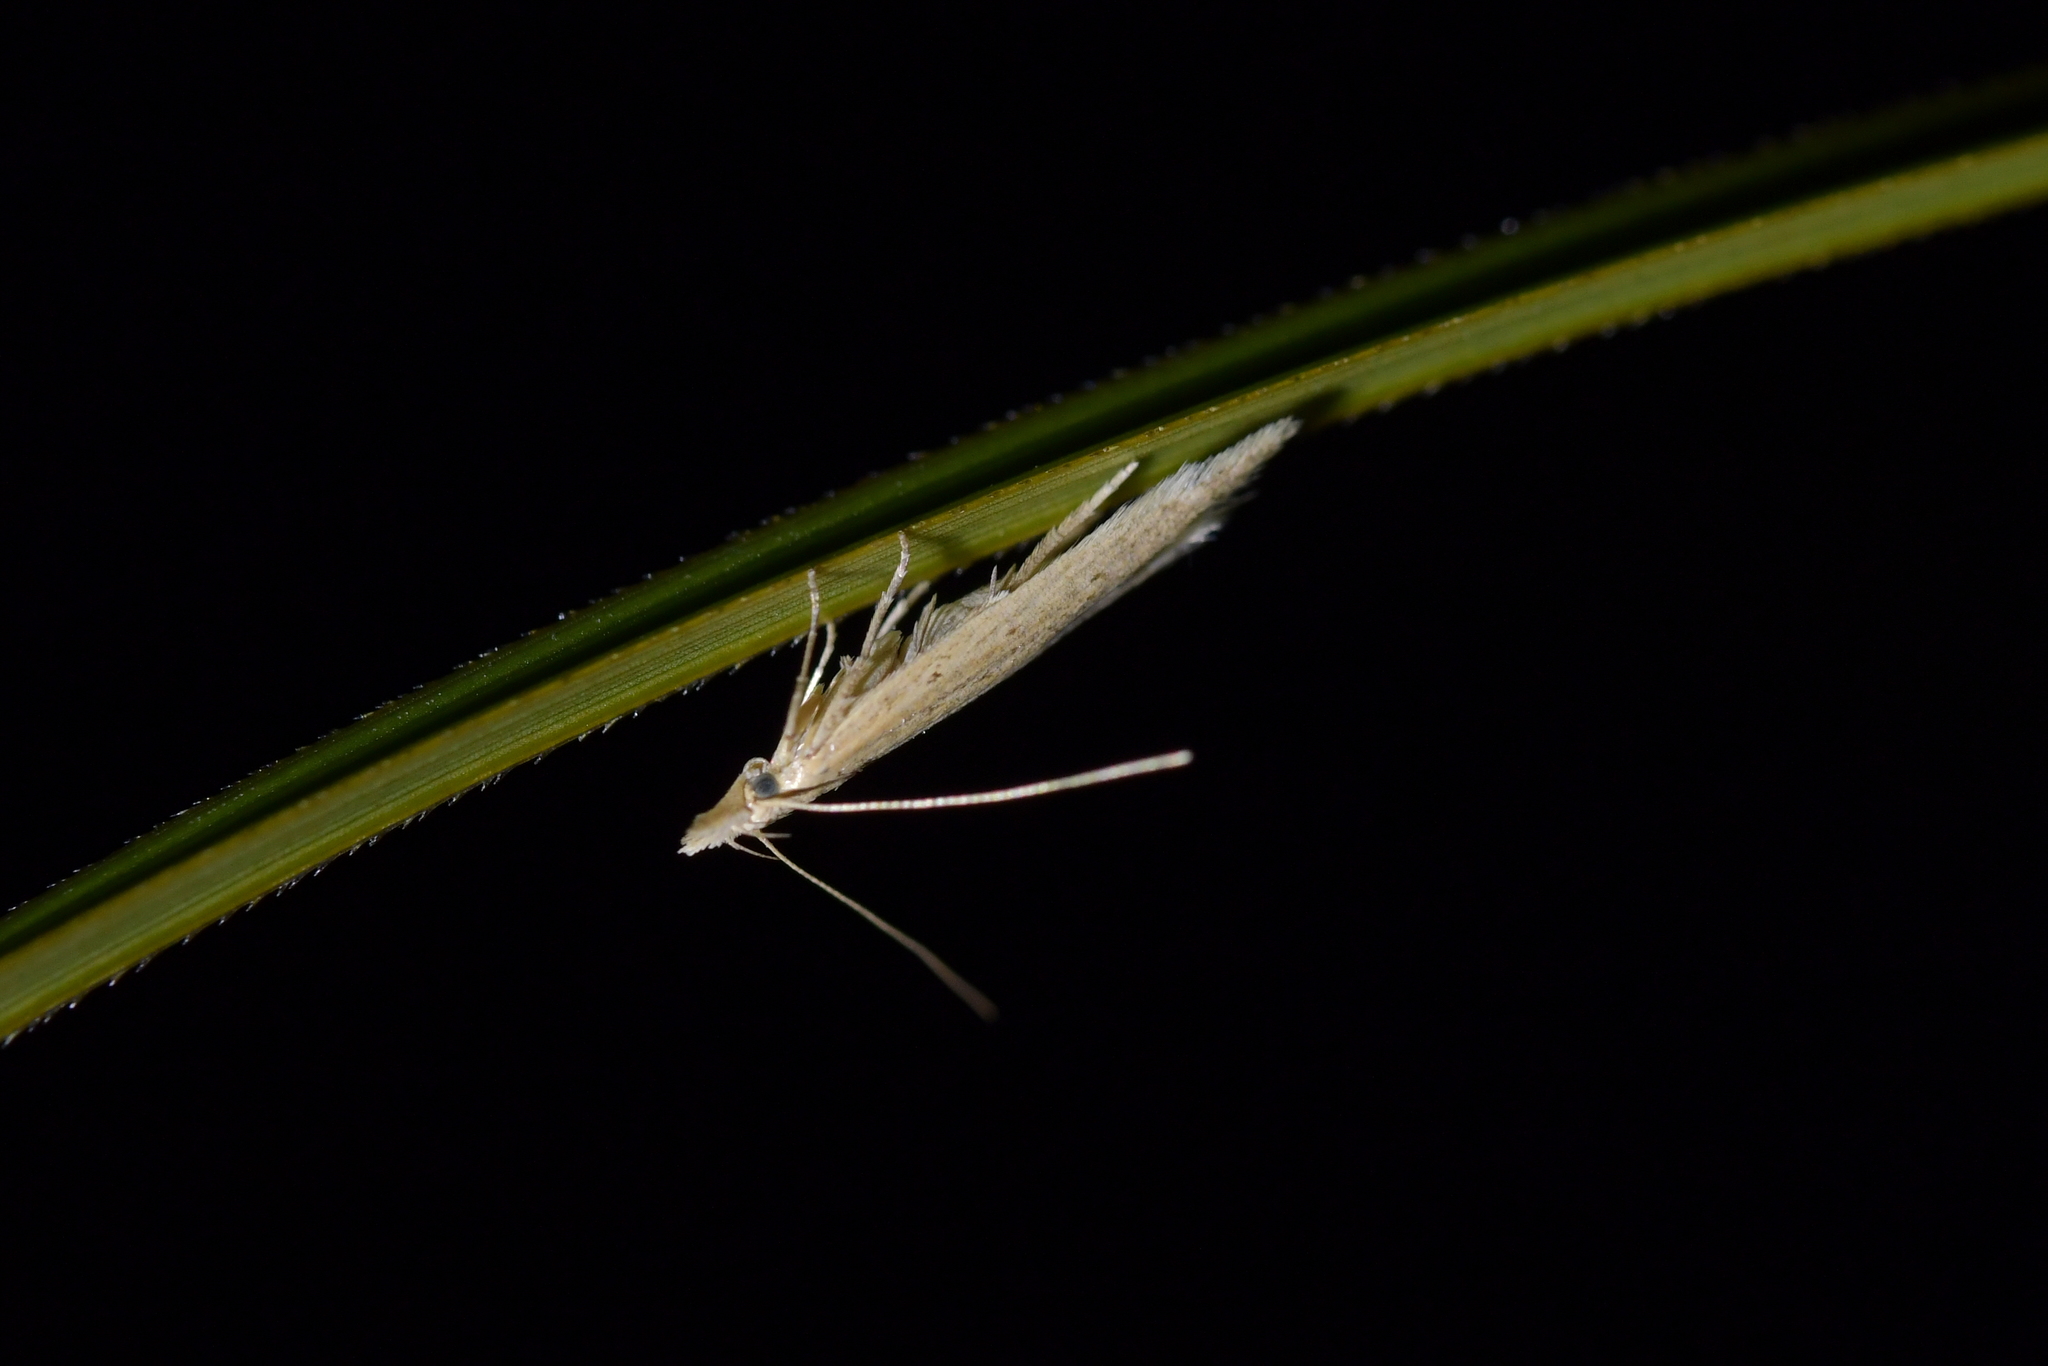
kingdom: Animalia
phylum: Arthropoda
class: Insecta
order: Lepidoptera
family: Gelechiidae
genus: Epiphthora
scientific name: Epiphthora calamogonus
